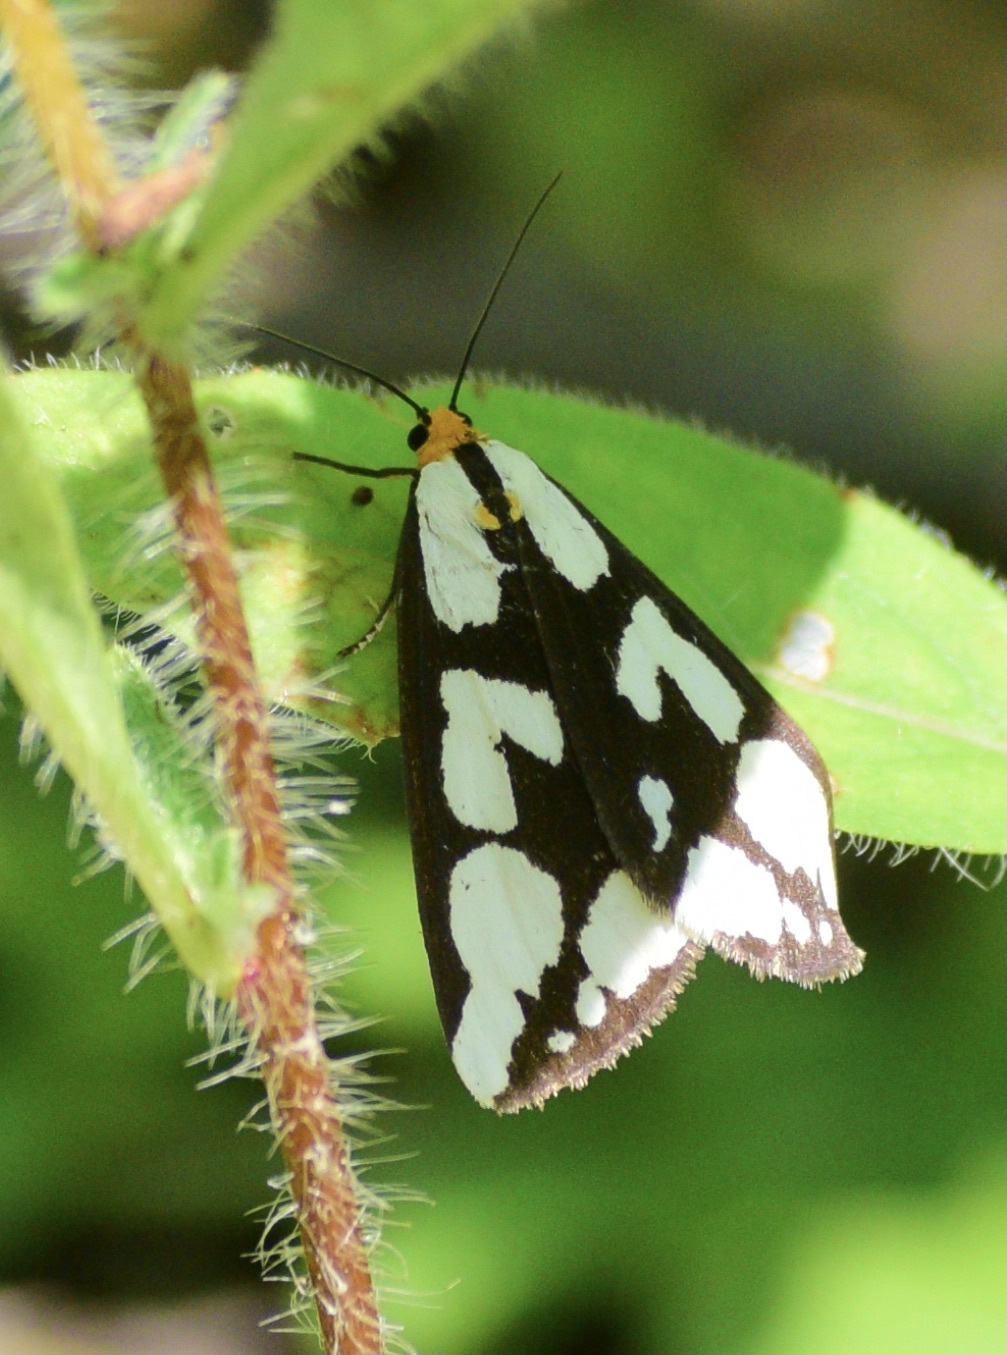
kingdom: Animalia
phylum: Arthropoda
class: Insecta
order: Lepidoptera
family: Erebidae
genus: Haploa
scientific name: Haploa confusa
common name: Confused haploa moth
